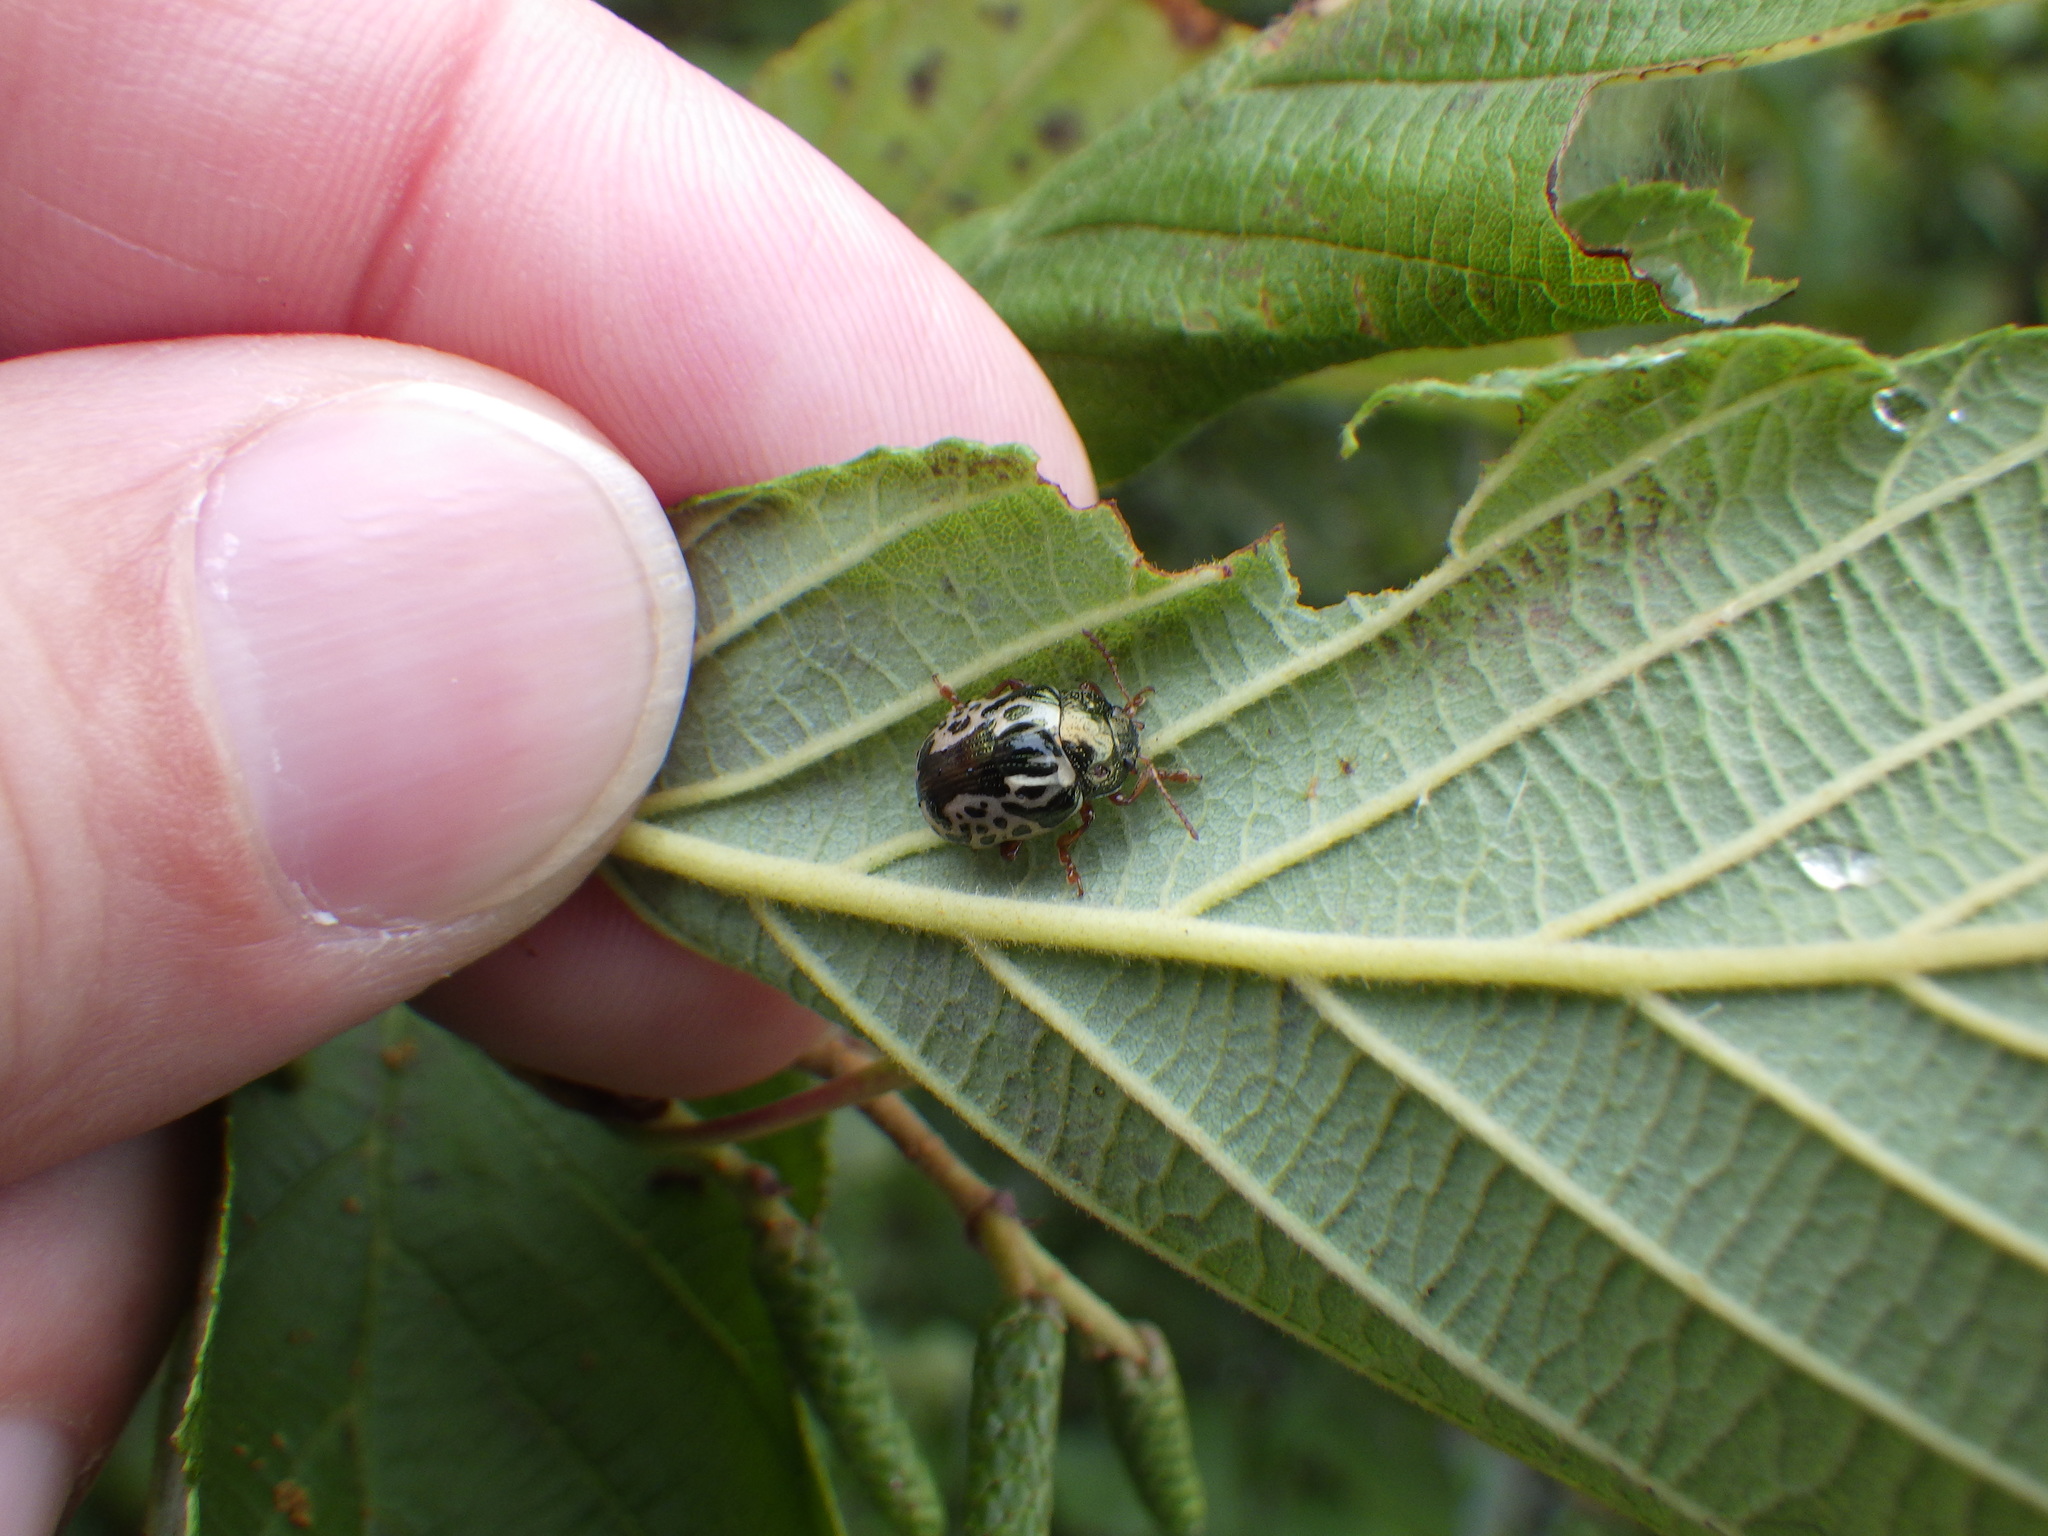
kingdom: Animalia
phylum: Arthropoda
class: Insecta
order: Coleoptera
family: Chrysomelidae
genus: Calligrapha
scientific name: Calligrapha confluens
